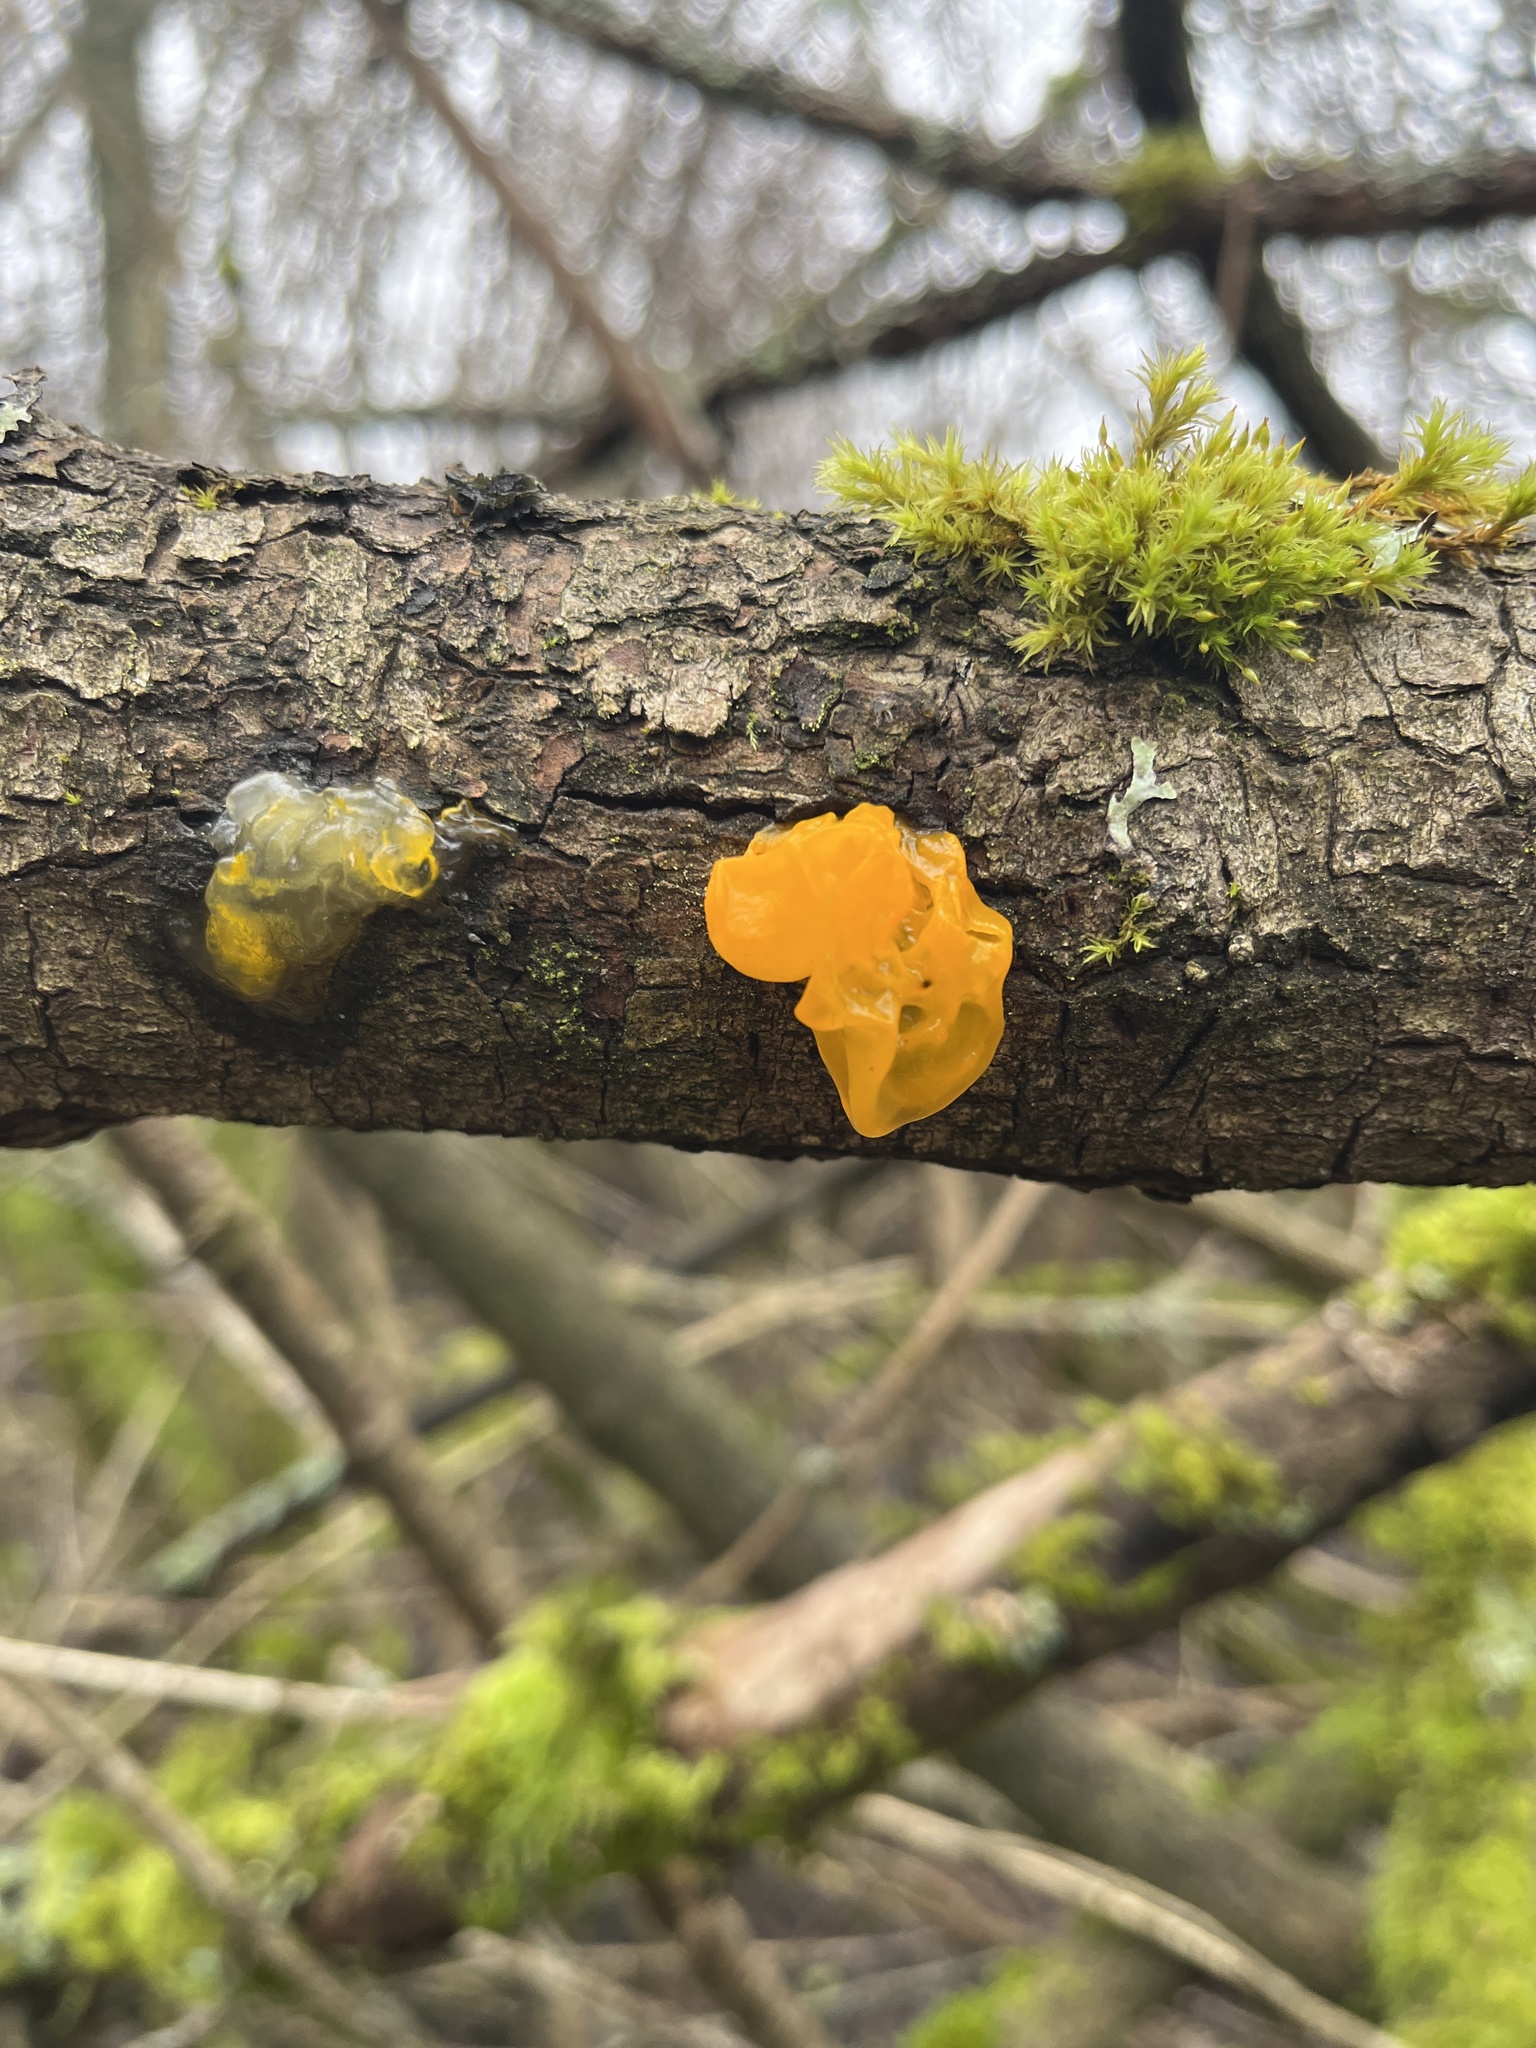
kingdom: Fungi
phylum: Basidiomycota
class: Tremellomycetes
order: Tremellales
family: Tremellaceae
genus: Tremella
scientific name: Tremella mesenterica
